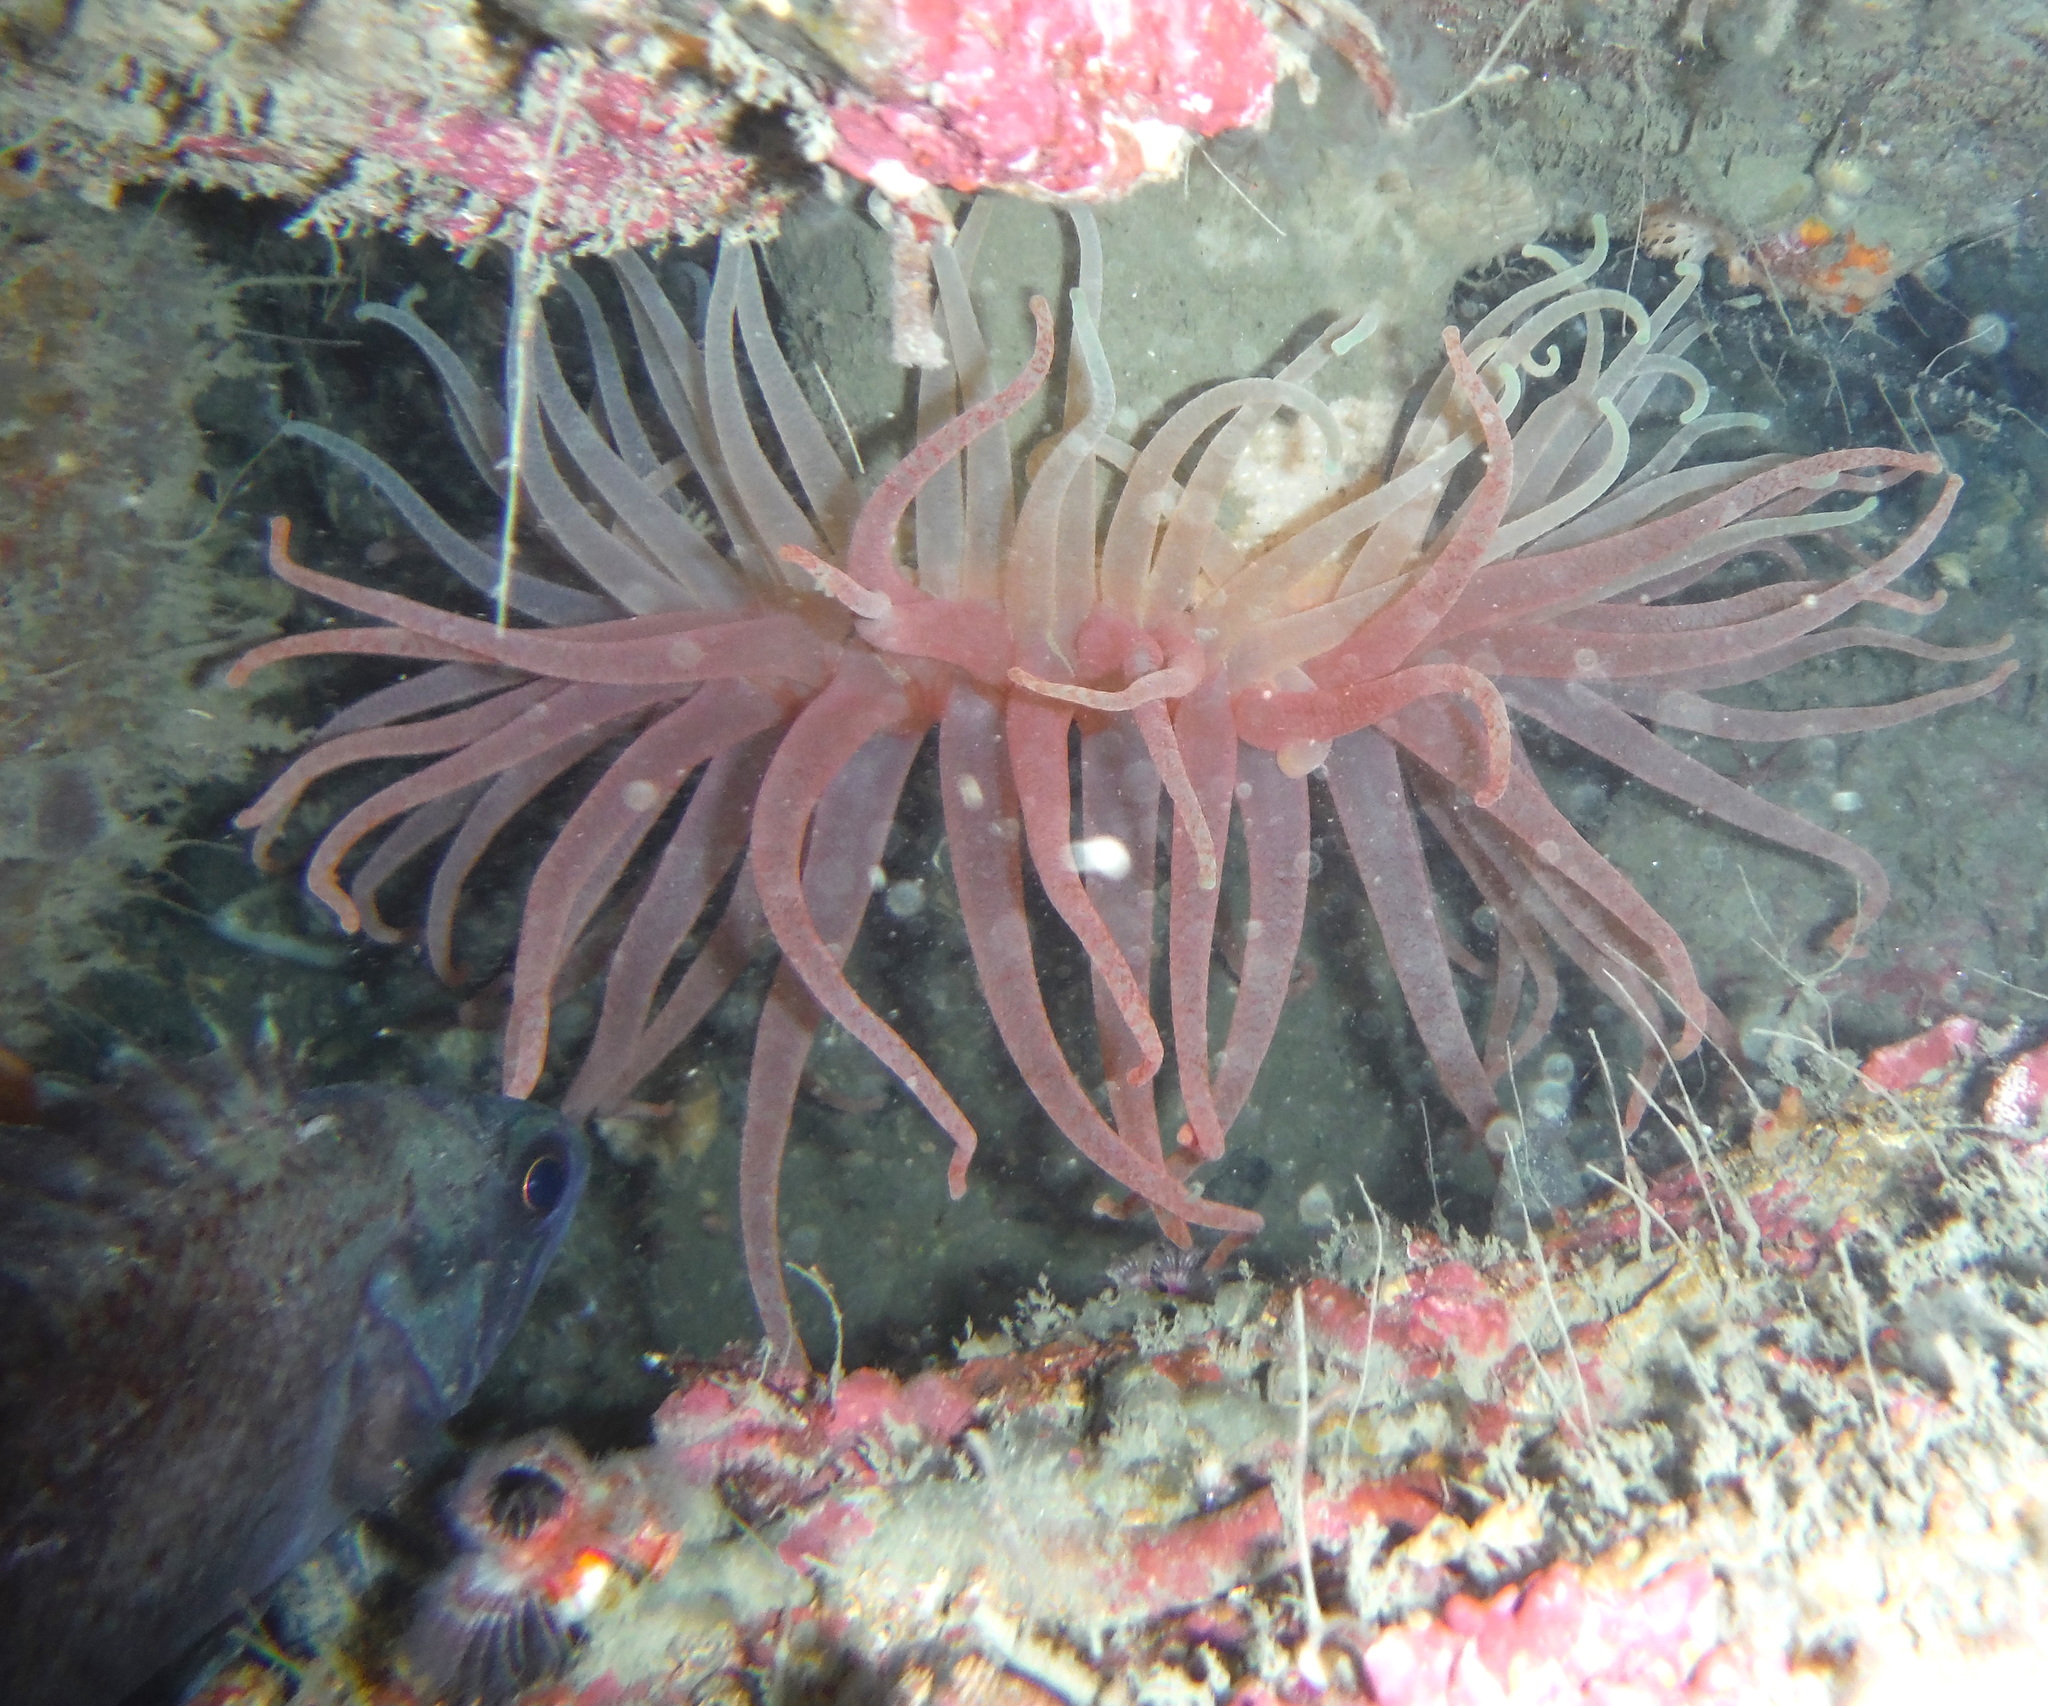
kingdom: Animalia
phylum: Cnidaria
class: Anthozoa
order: Actiniaria
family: Actiniidae
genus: Cribrinopsis
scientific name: Cribrinopsis fernaldi
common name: Chevron-tentacle anemone
